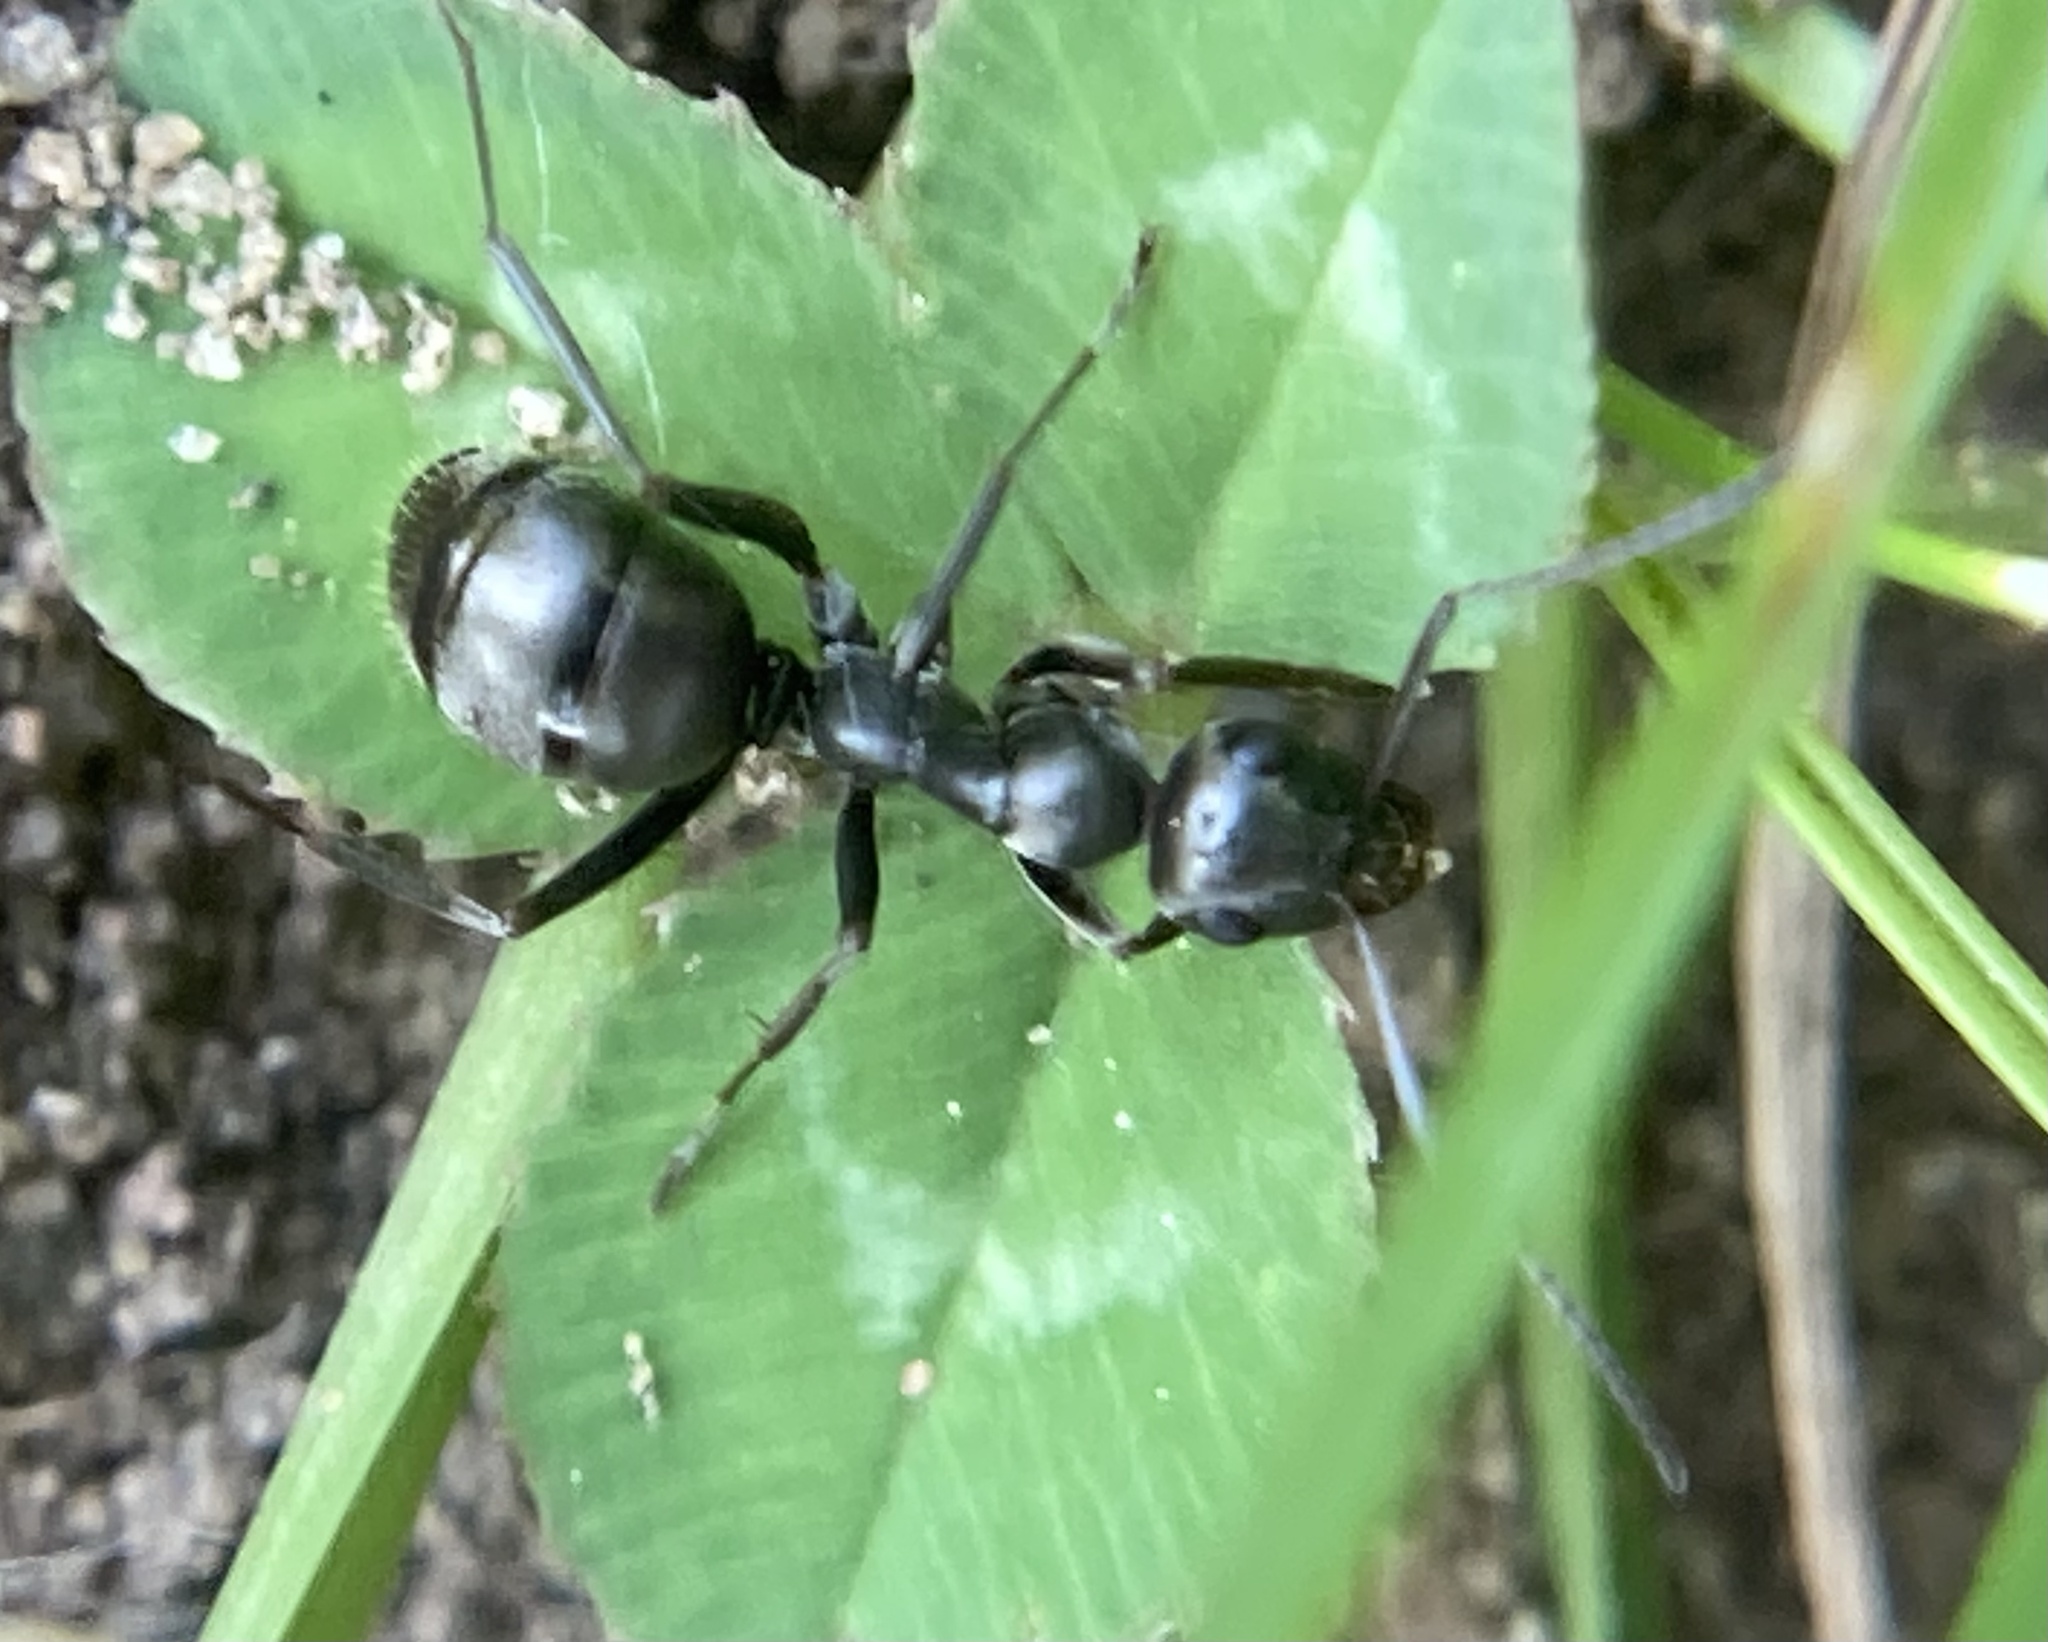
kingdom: Animalia
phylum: Arthropoda
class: Insecta
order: Hymenoptera
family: Formicidae
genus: Formica
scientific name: Formica
